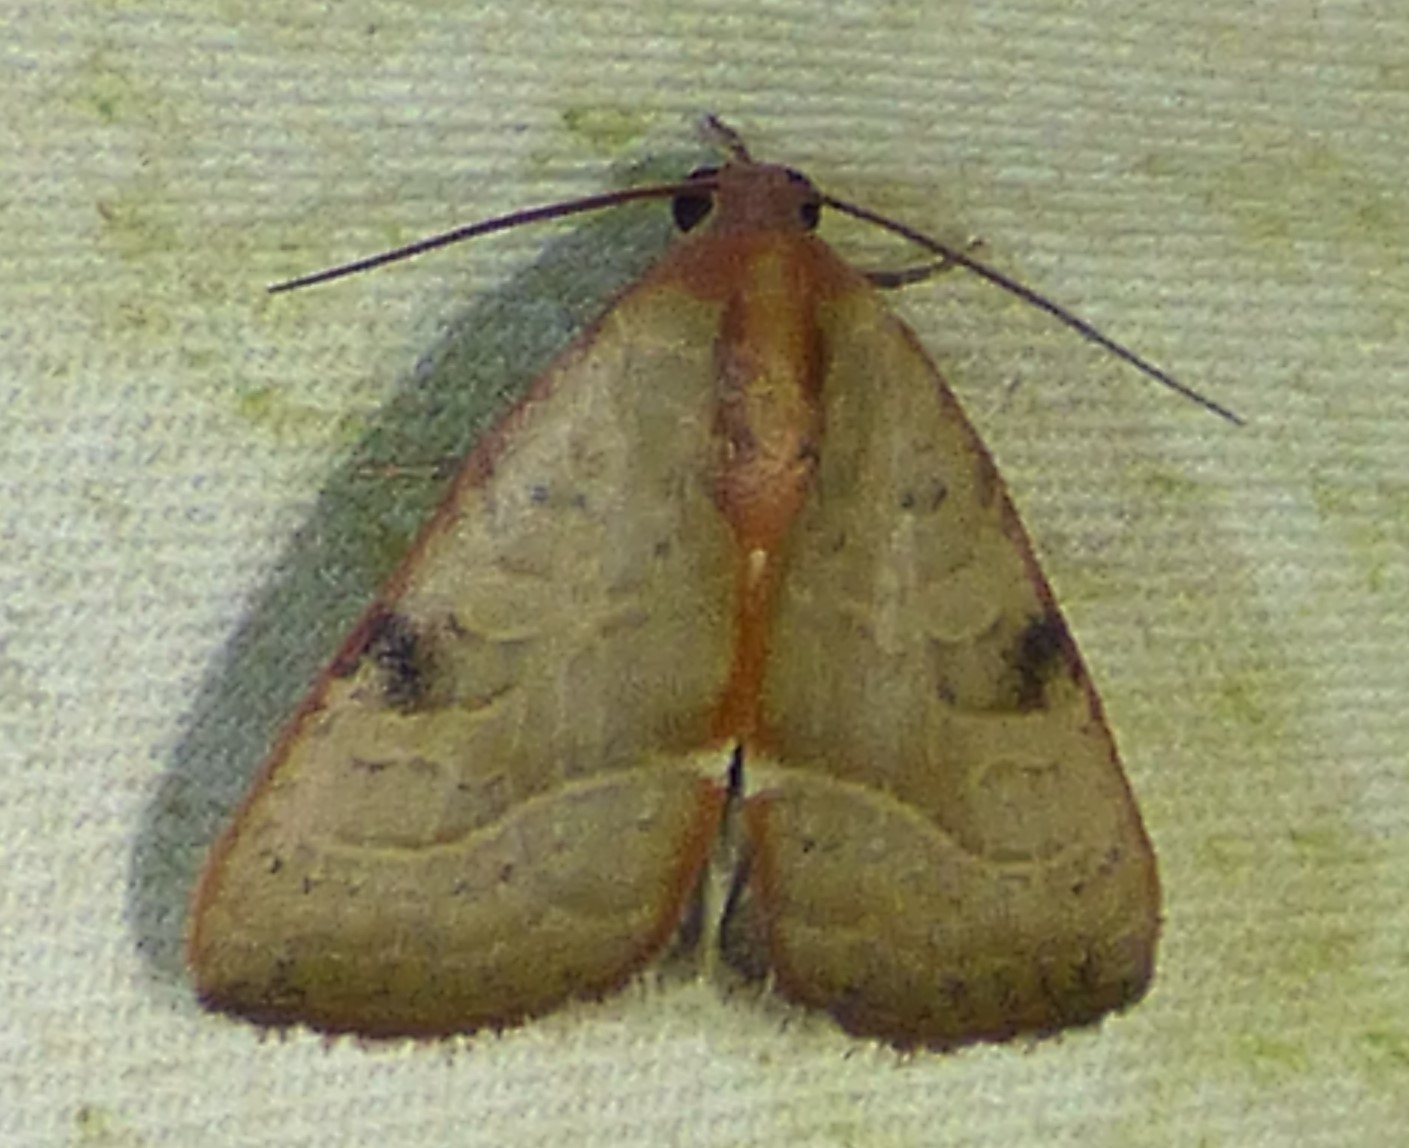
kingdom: Animalia
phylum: Arthropoda
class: Insecta
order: Lepidoptera
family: Noctuidae
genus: Galgula
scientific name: Galgula partita
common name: Wedgeling
